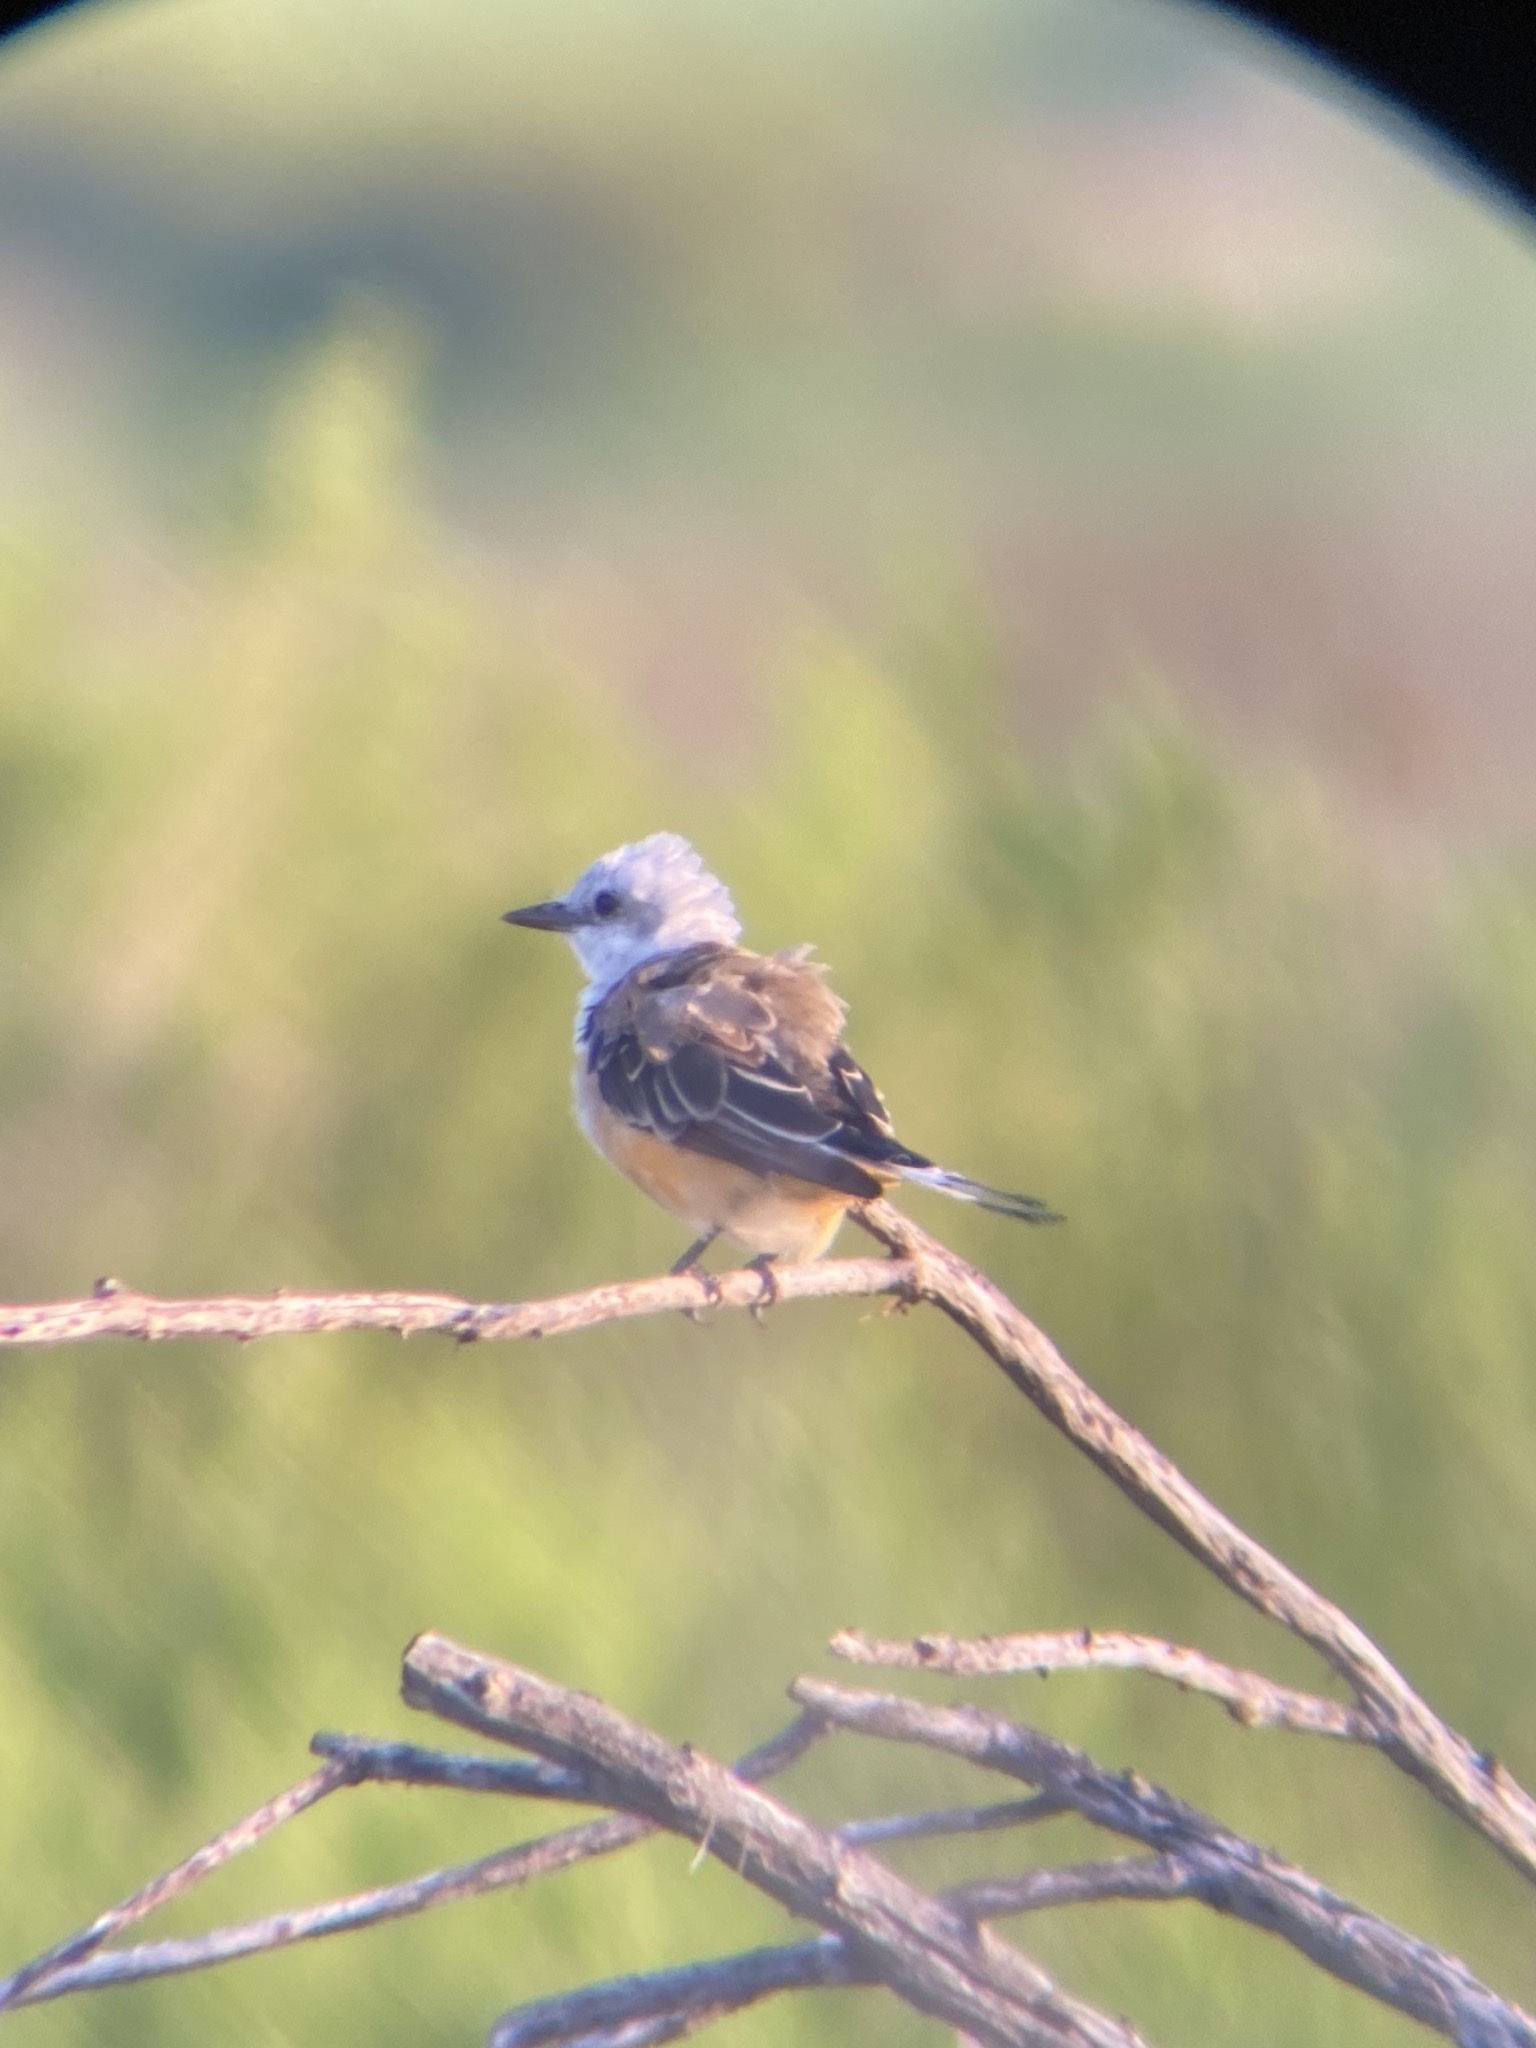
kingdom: Animalia
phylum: Chordata
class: Aves
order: Passeriformes
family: Tyrannidae
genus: Tyrannus
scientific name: Tyrannus forficatus
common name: Scissor-tailed flycatcher
